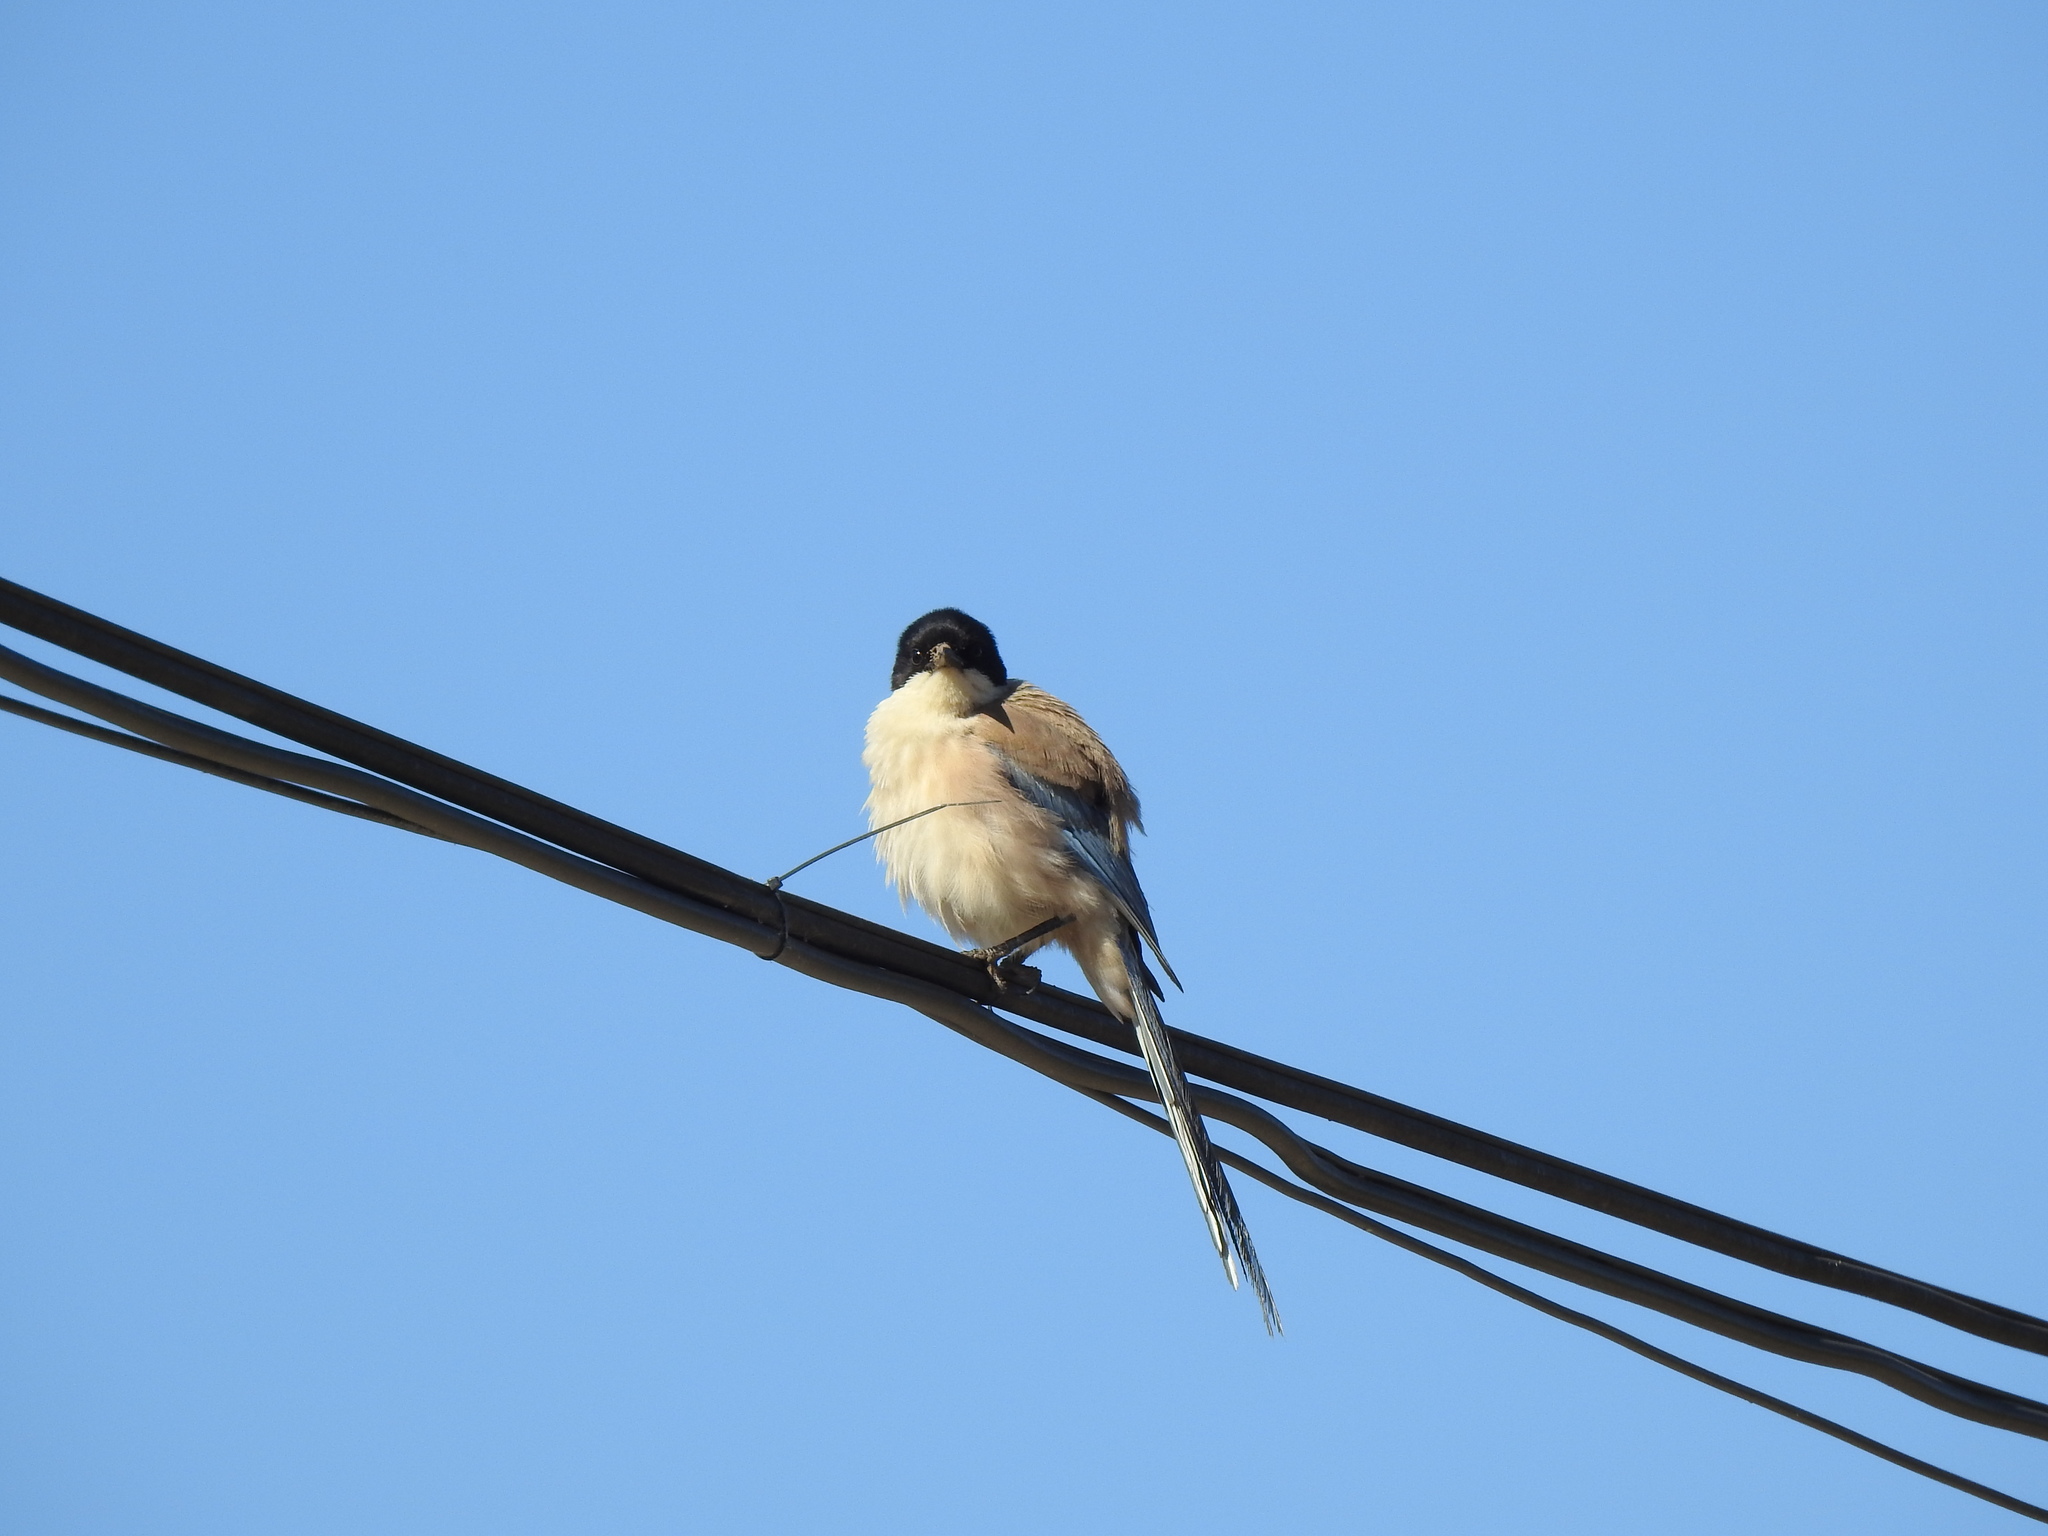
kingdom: Animalia
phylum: Chordata
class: Aves
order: Passeriformes
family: Corvidae
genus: Cyanopica
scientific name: Cyanopica cooki
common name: Iberian magpie
